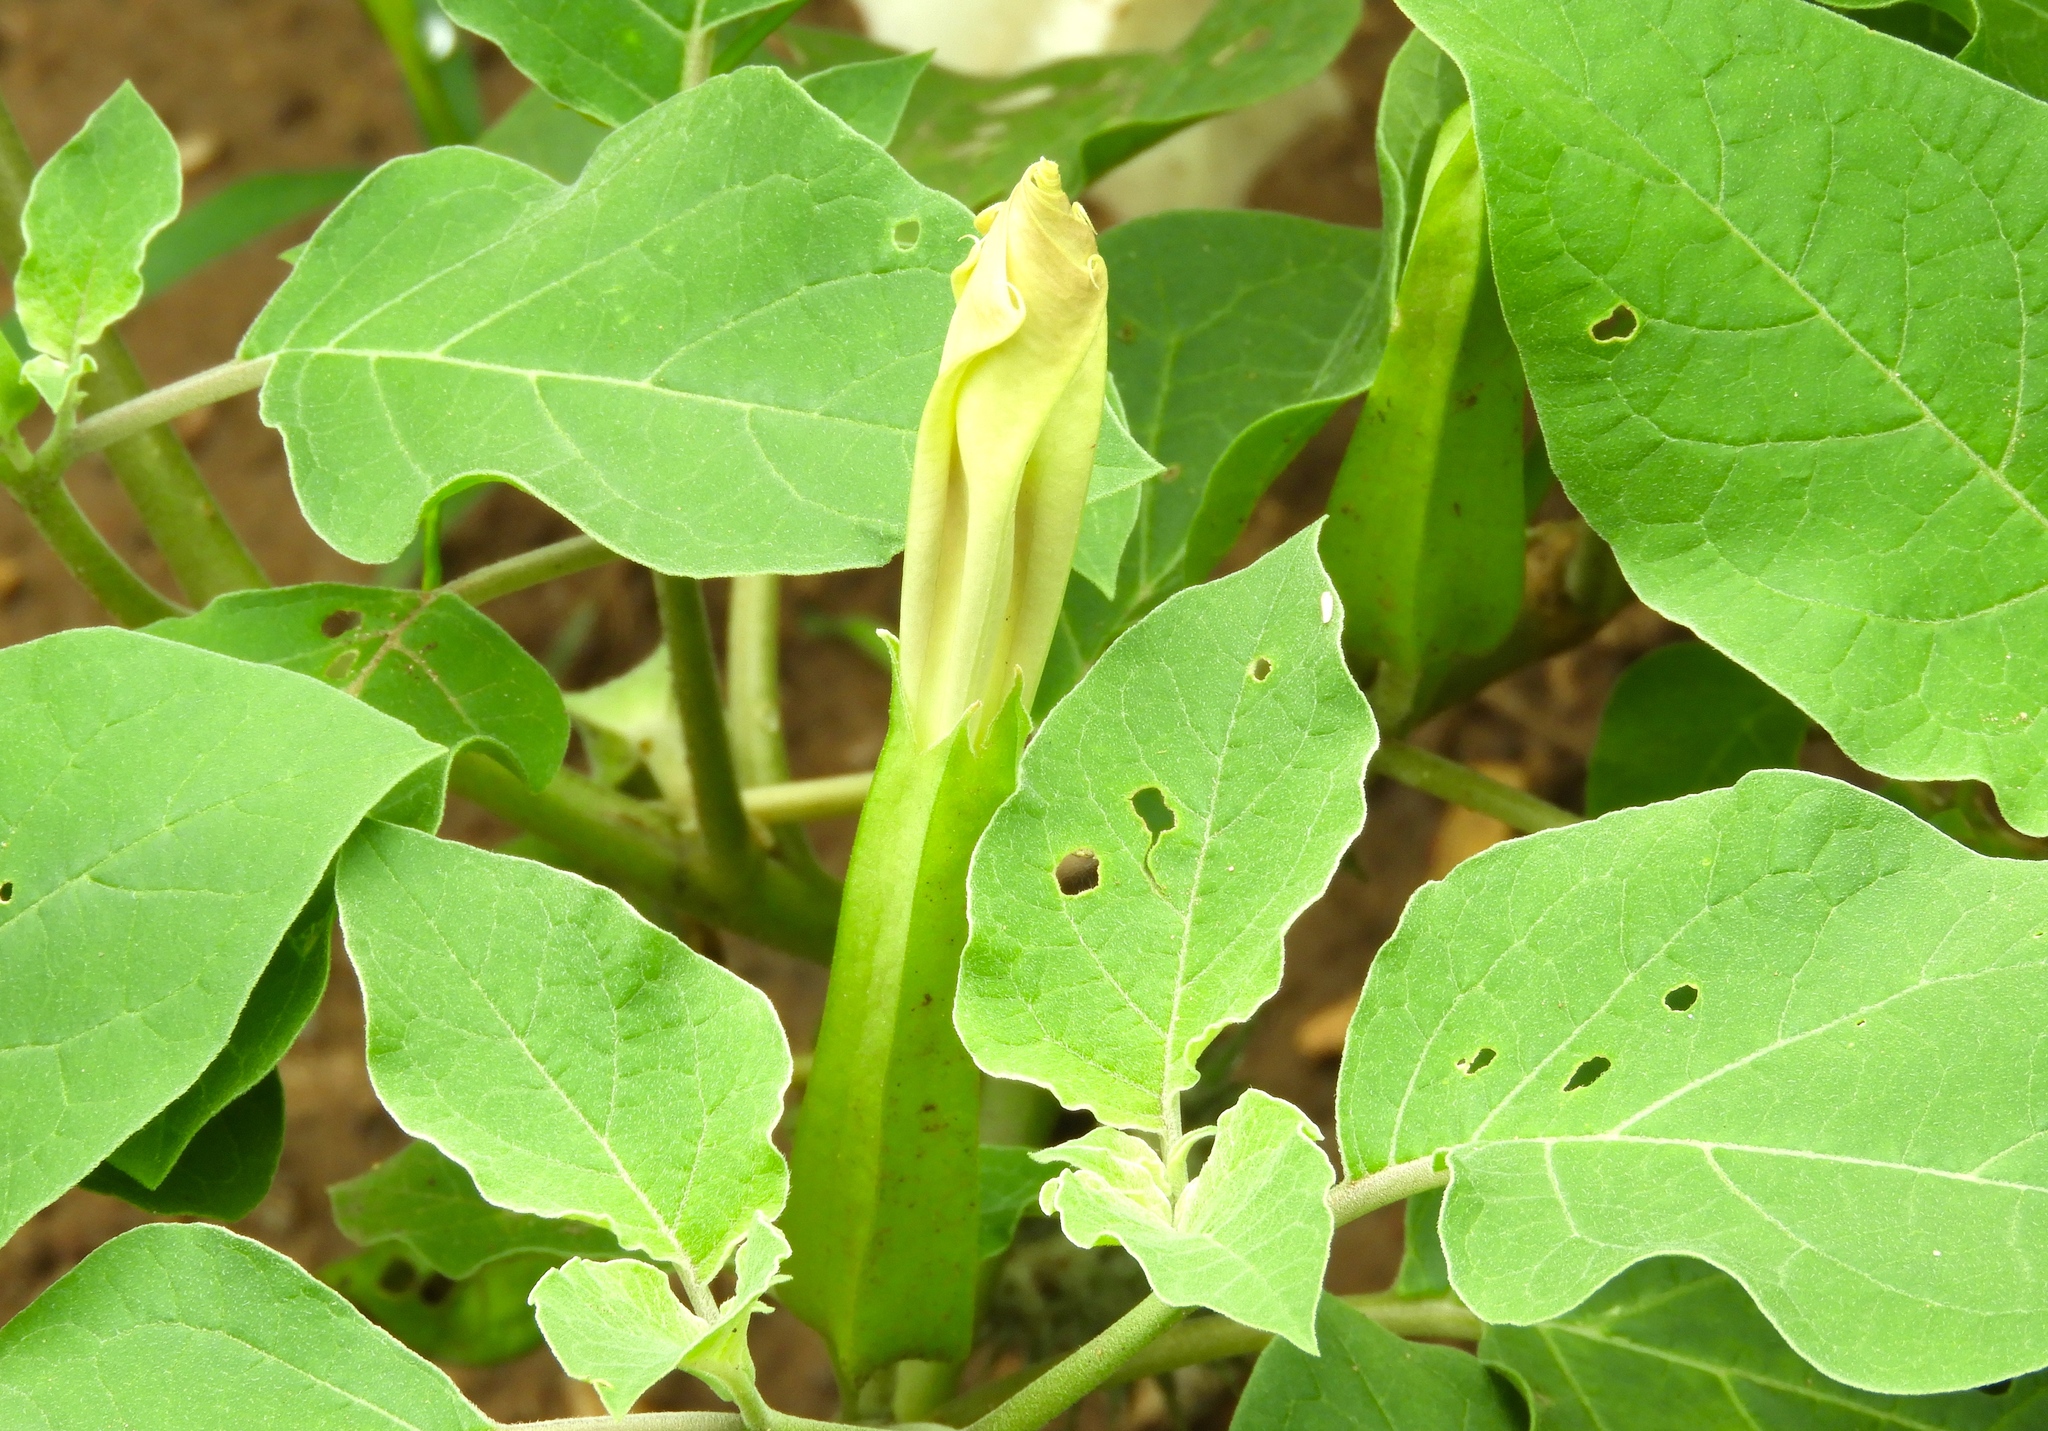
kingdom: Plantae
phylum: Tracheophyta
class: Magnoliopsida
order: Solanales
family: Solanaceae
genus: Datura
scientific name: Datura
